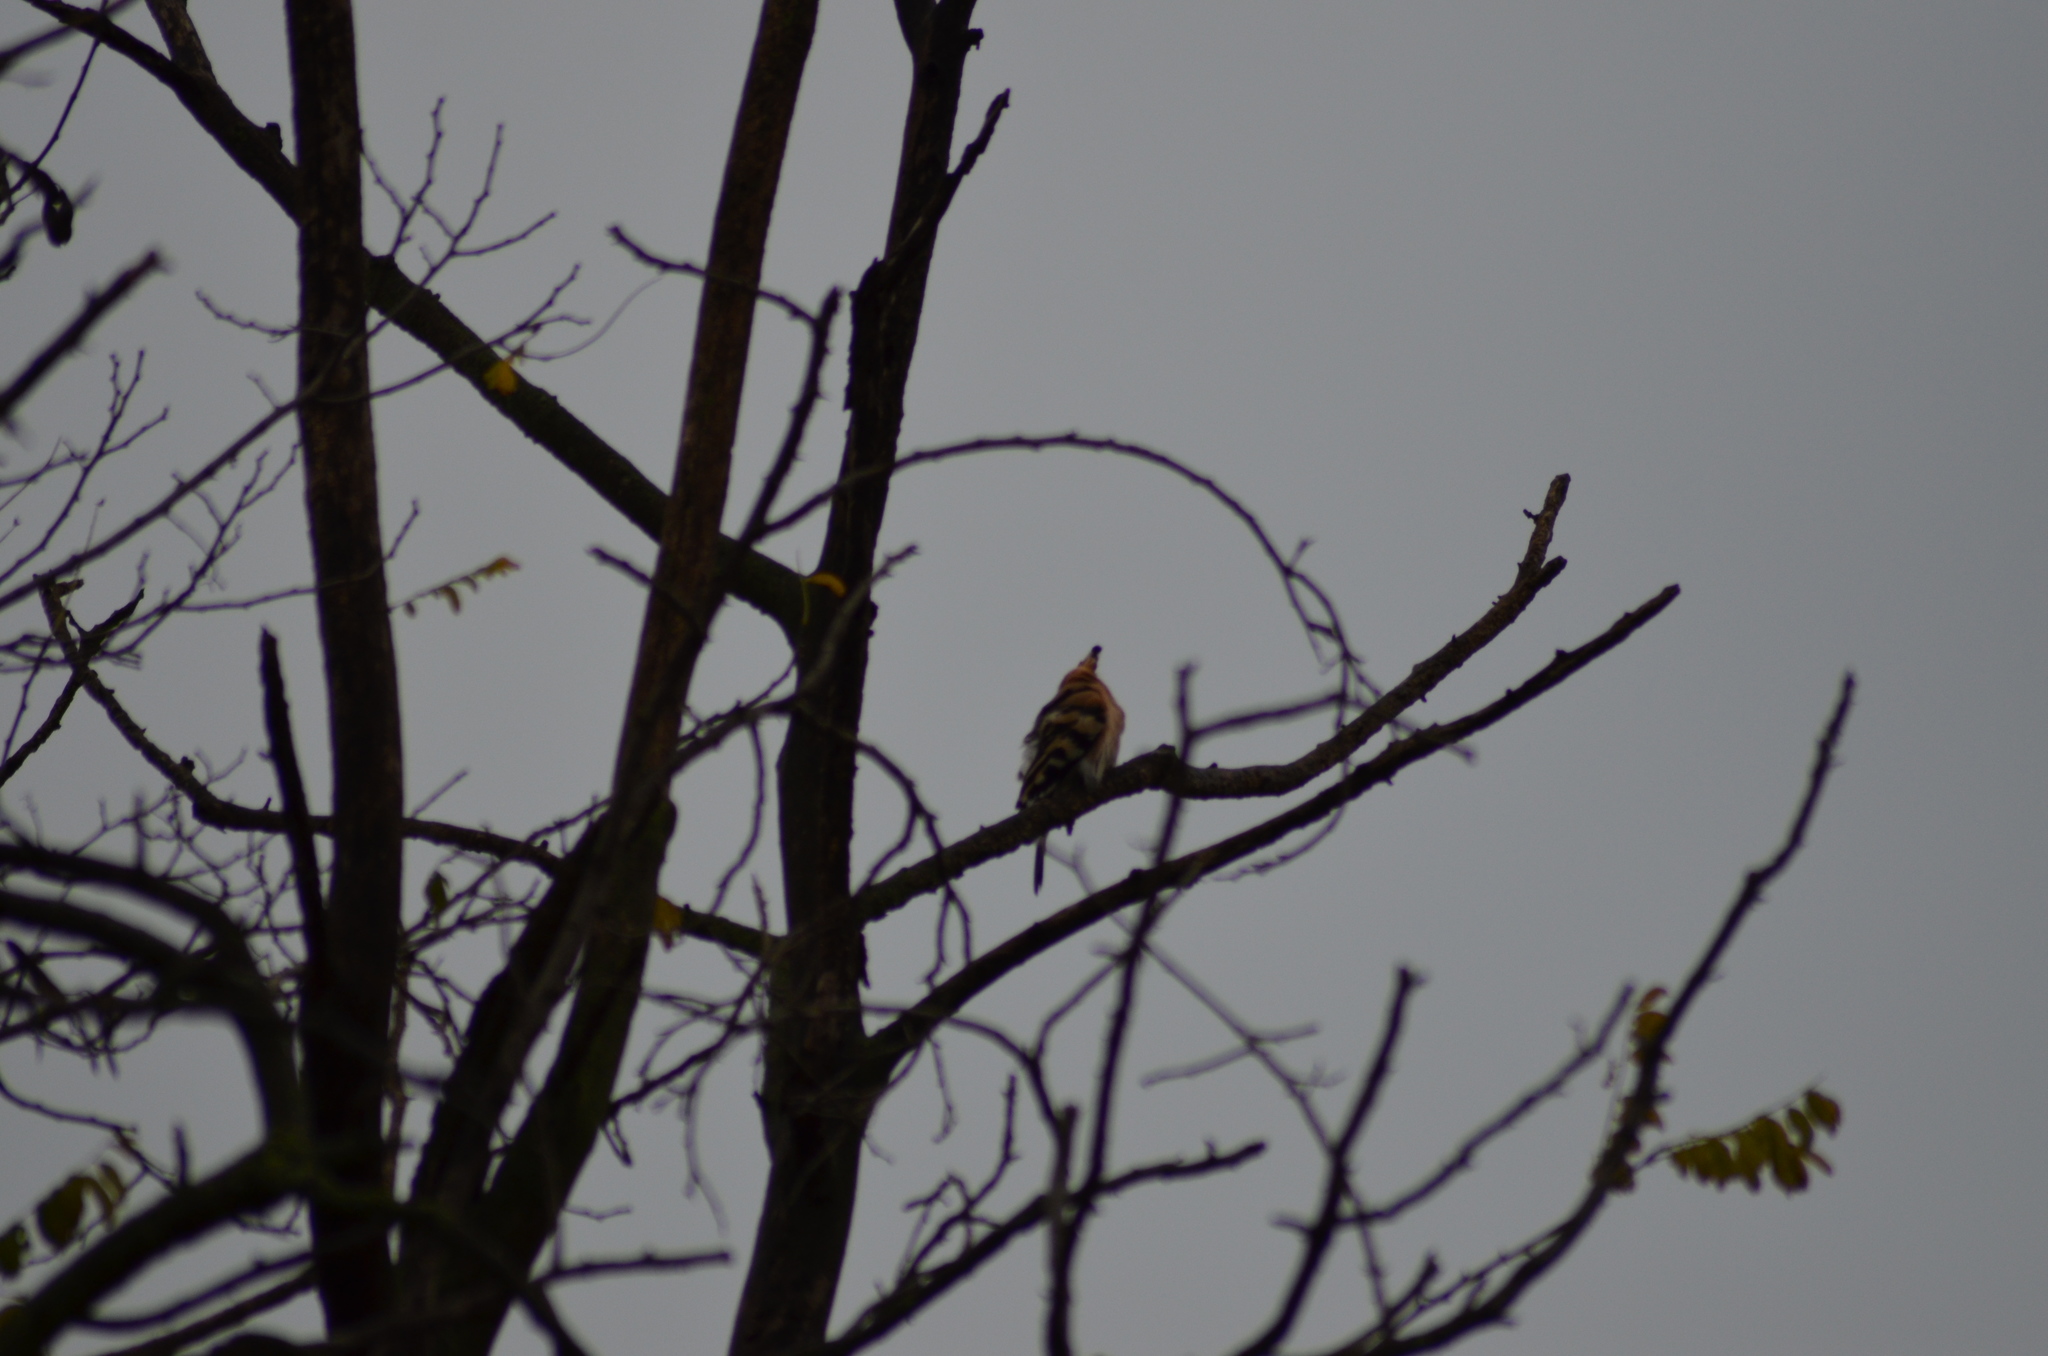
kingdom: Animalia
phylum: Chordata
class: Aves
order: Bucerotiformes
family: Upupidae
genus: Upupa
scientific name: Upupa epops
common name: Eurasian hoopoe
